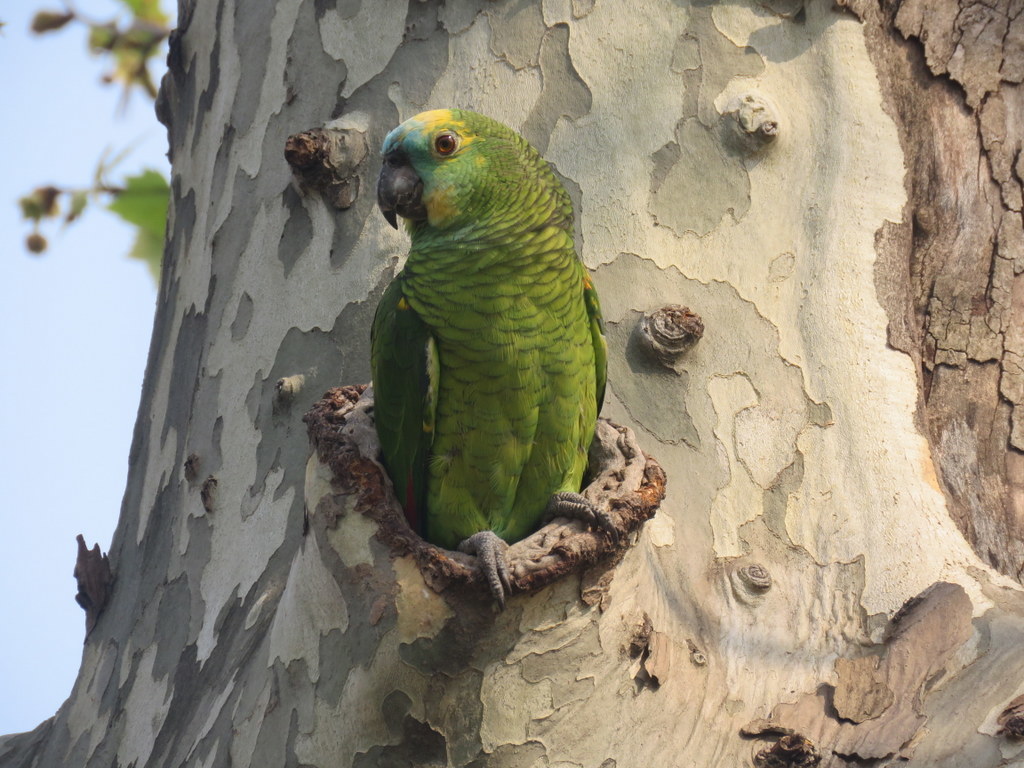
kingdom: Animalia
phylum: Chordata
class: Aves
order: Psittaciformes
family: Psittacidae
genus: Amazona
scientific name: Amazona aestiva
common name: Turquoise-fronted amazon
